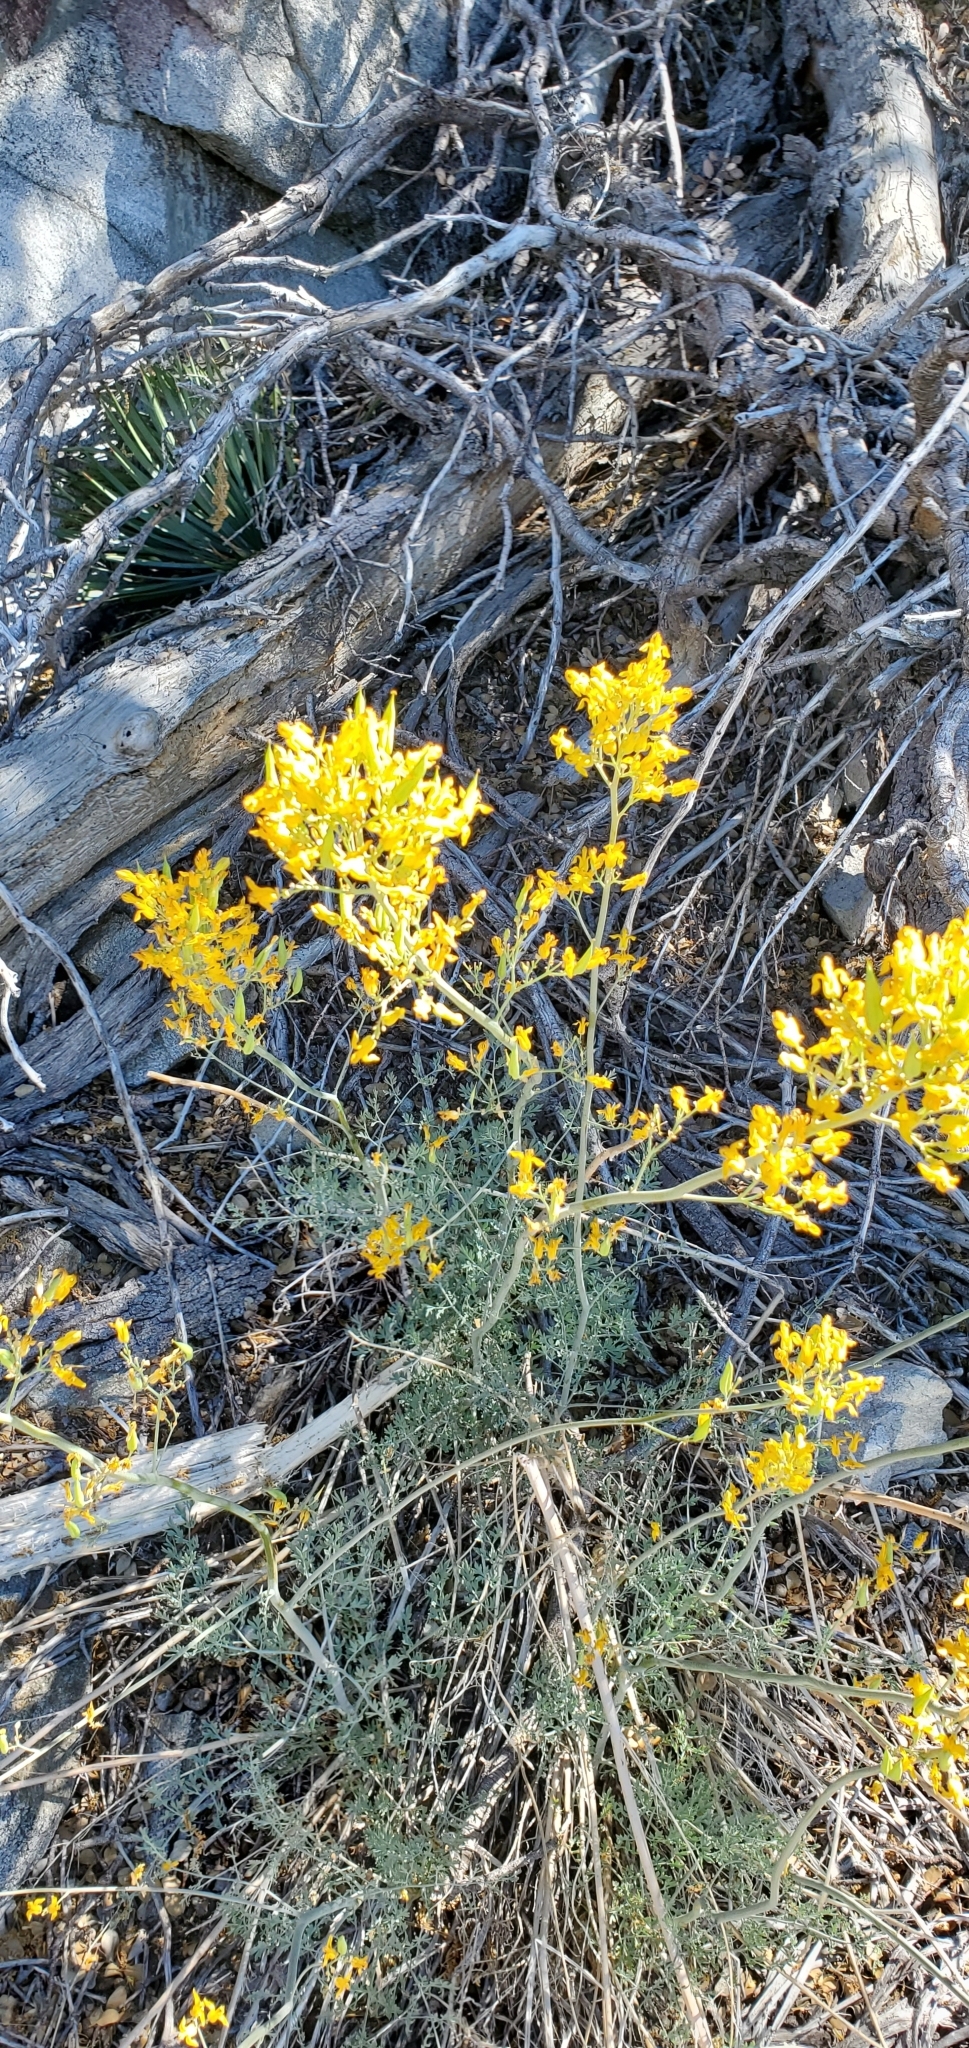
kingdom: Plantae
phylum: Tracheophyta
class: Magnoliopsida
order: Ranunculales
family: Papaveraceae
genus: Ehrendorferia
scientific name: Ehrendorferia chrysantha
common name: Golden eardrops
